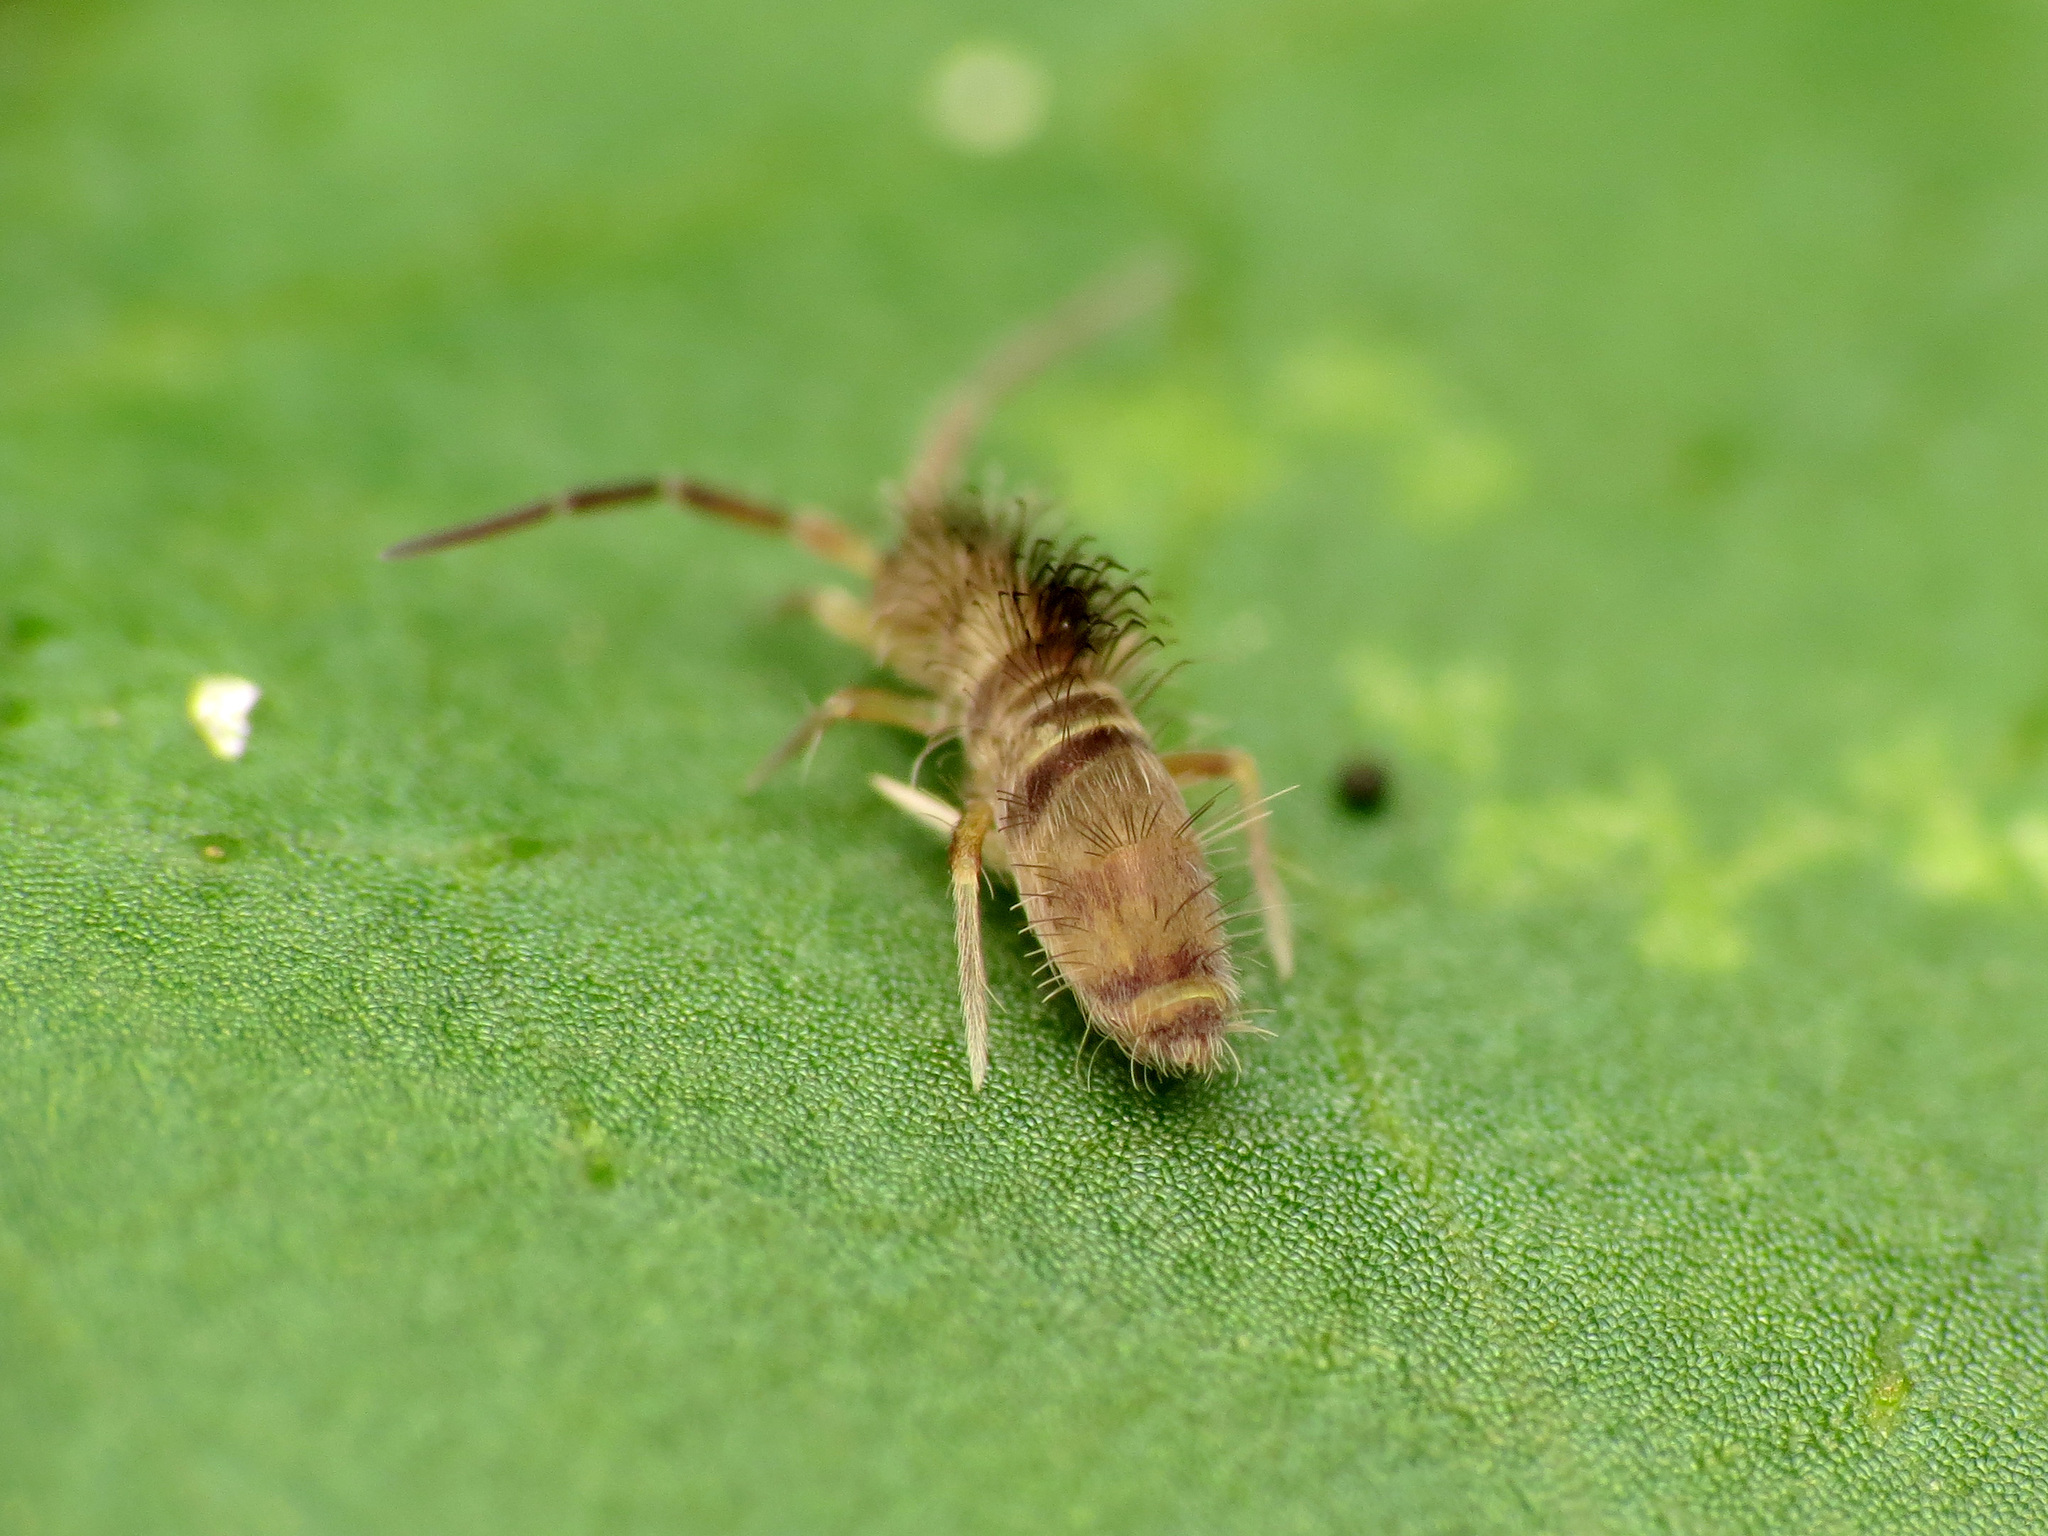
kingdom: Animalia
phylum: Arthropoda
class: Collembola
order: Entomobryomorpha
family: Entomobryidae
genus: Homidia
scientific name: Homidia sauteri
